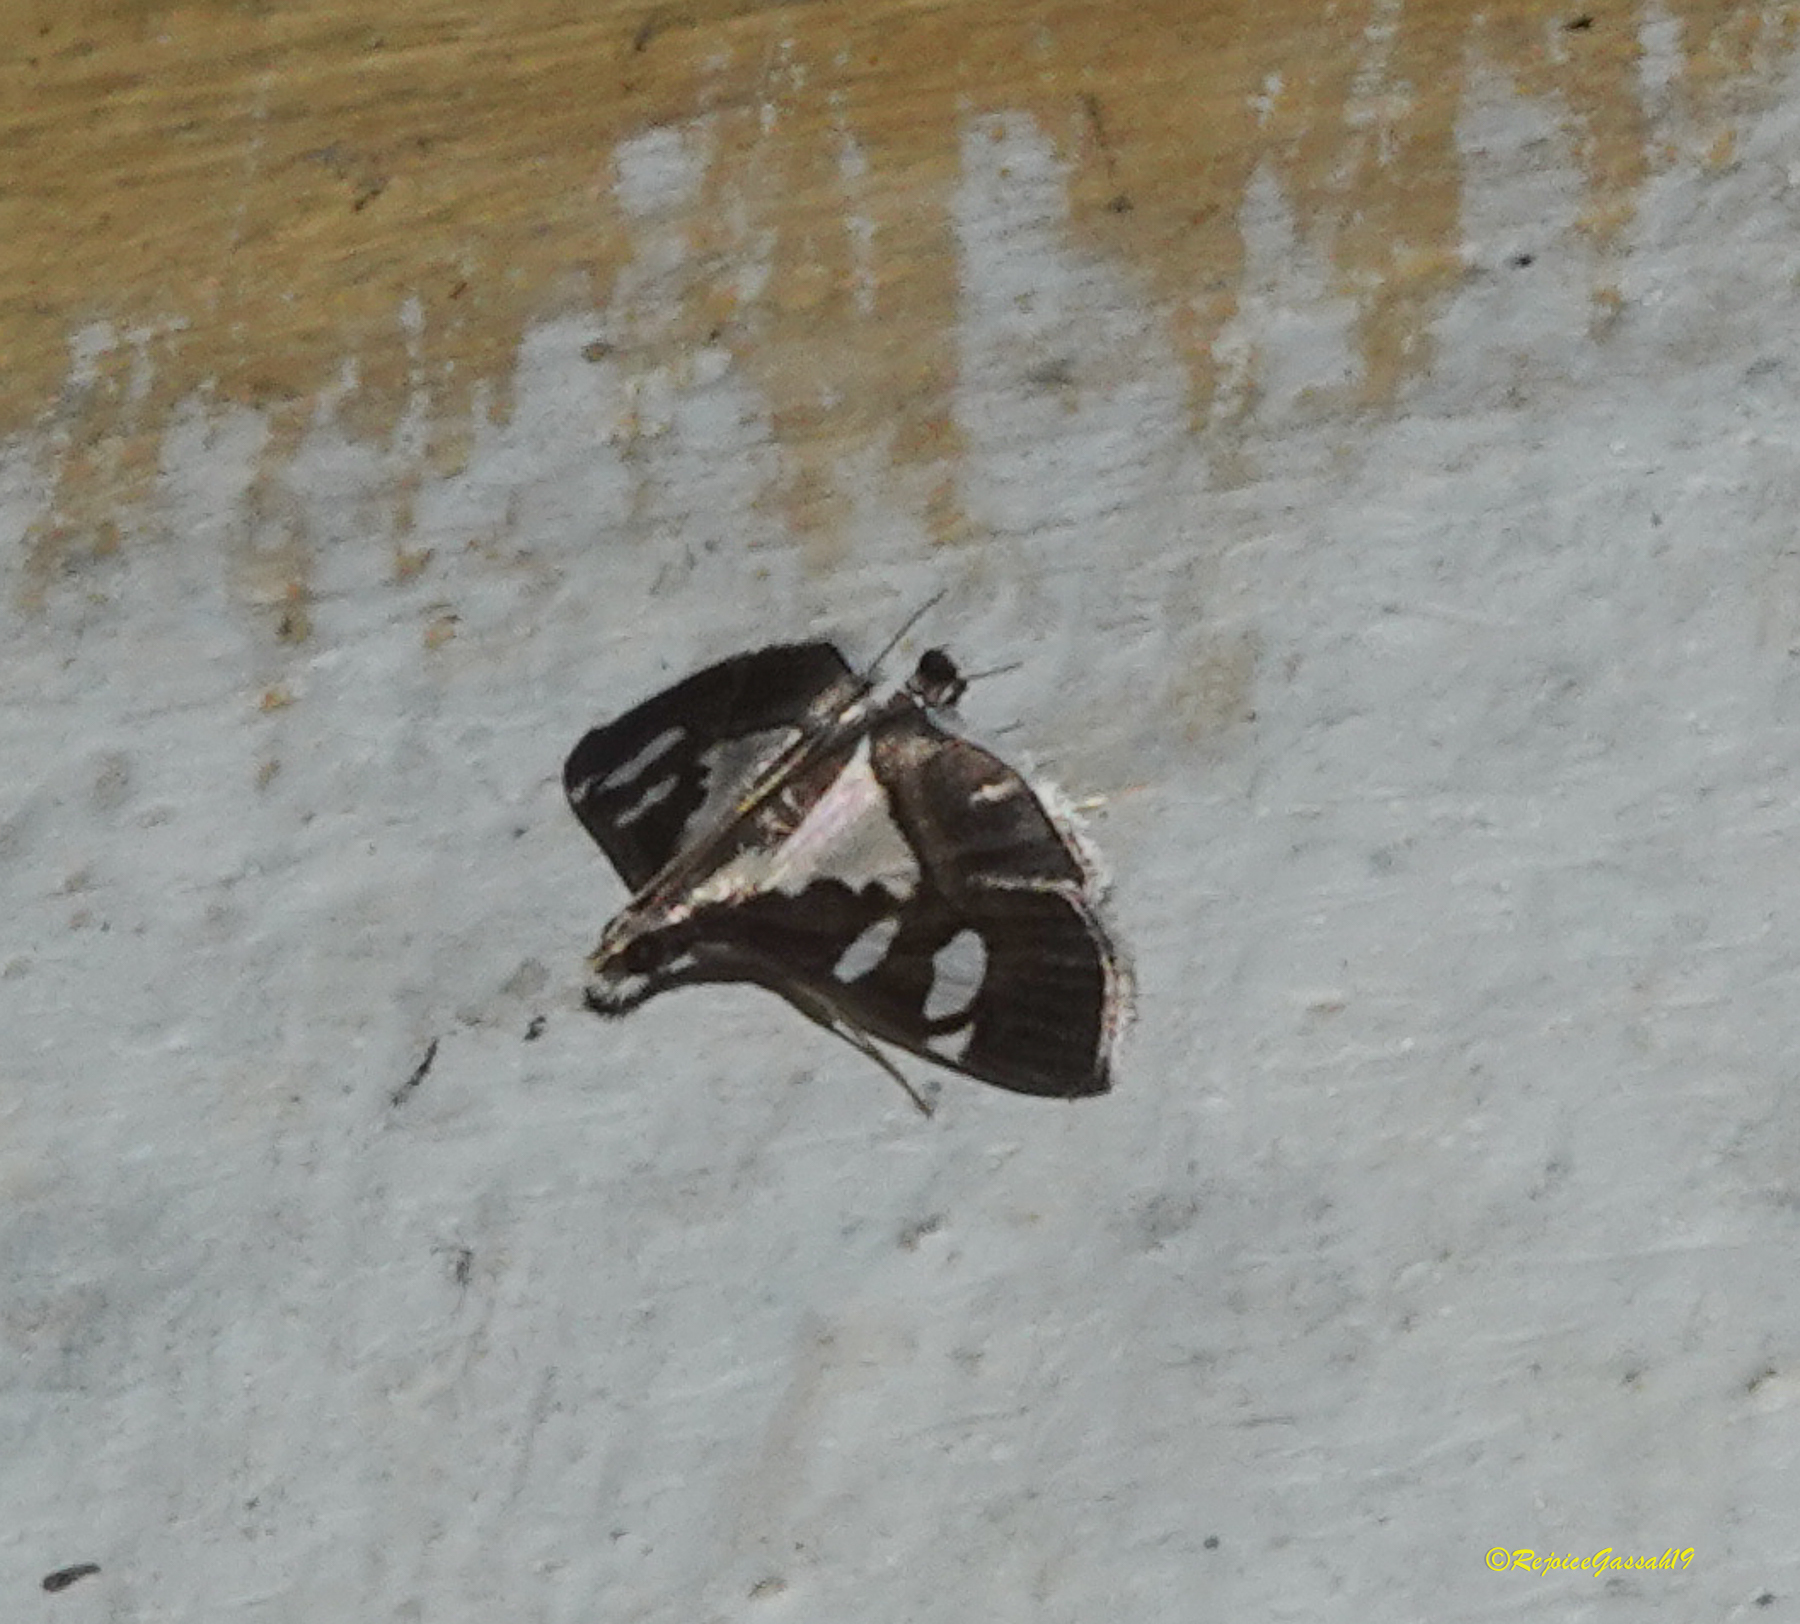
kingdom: Animalia
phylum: Arthropoda
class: Insecta
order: Lepidoptera
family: Crambidae
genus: Glyphodes
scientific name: Glyphodes bicolor
